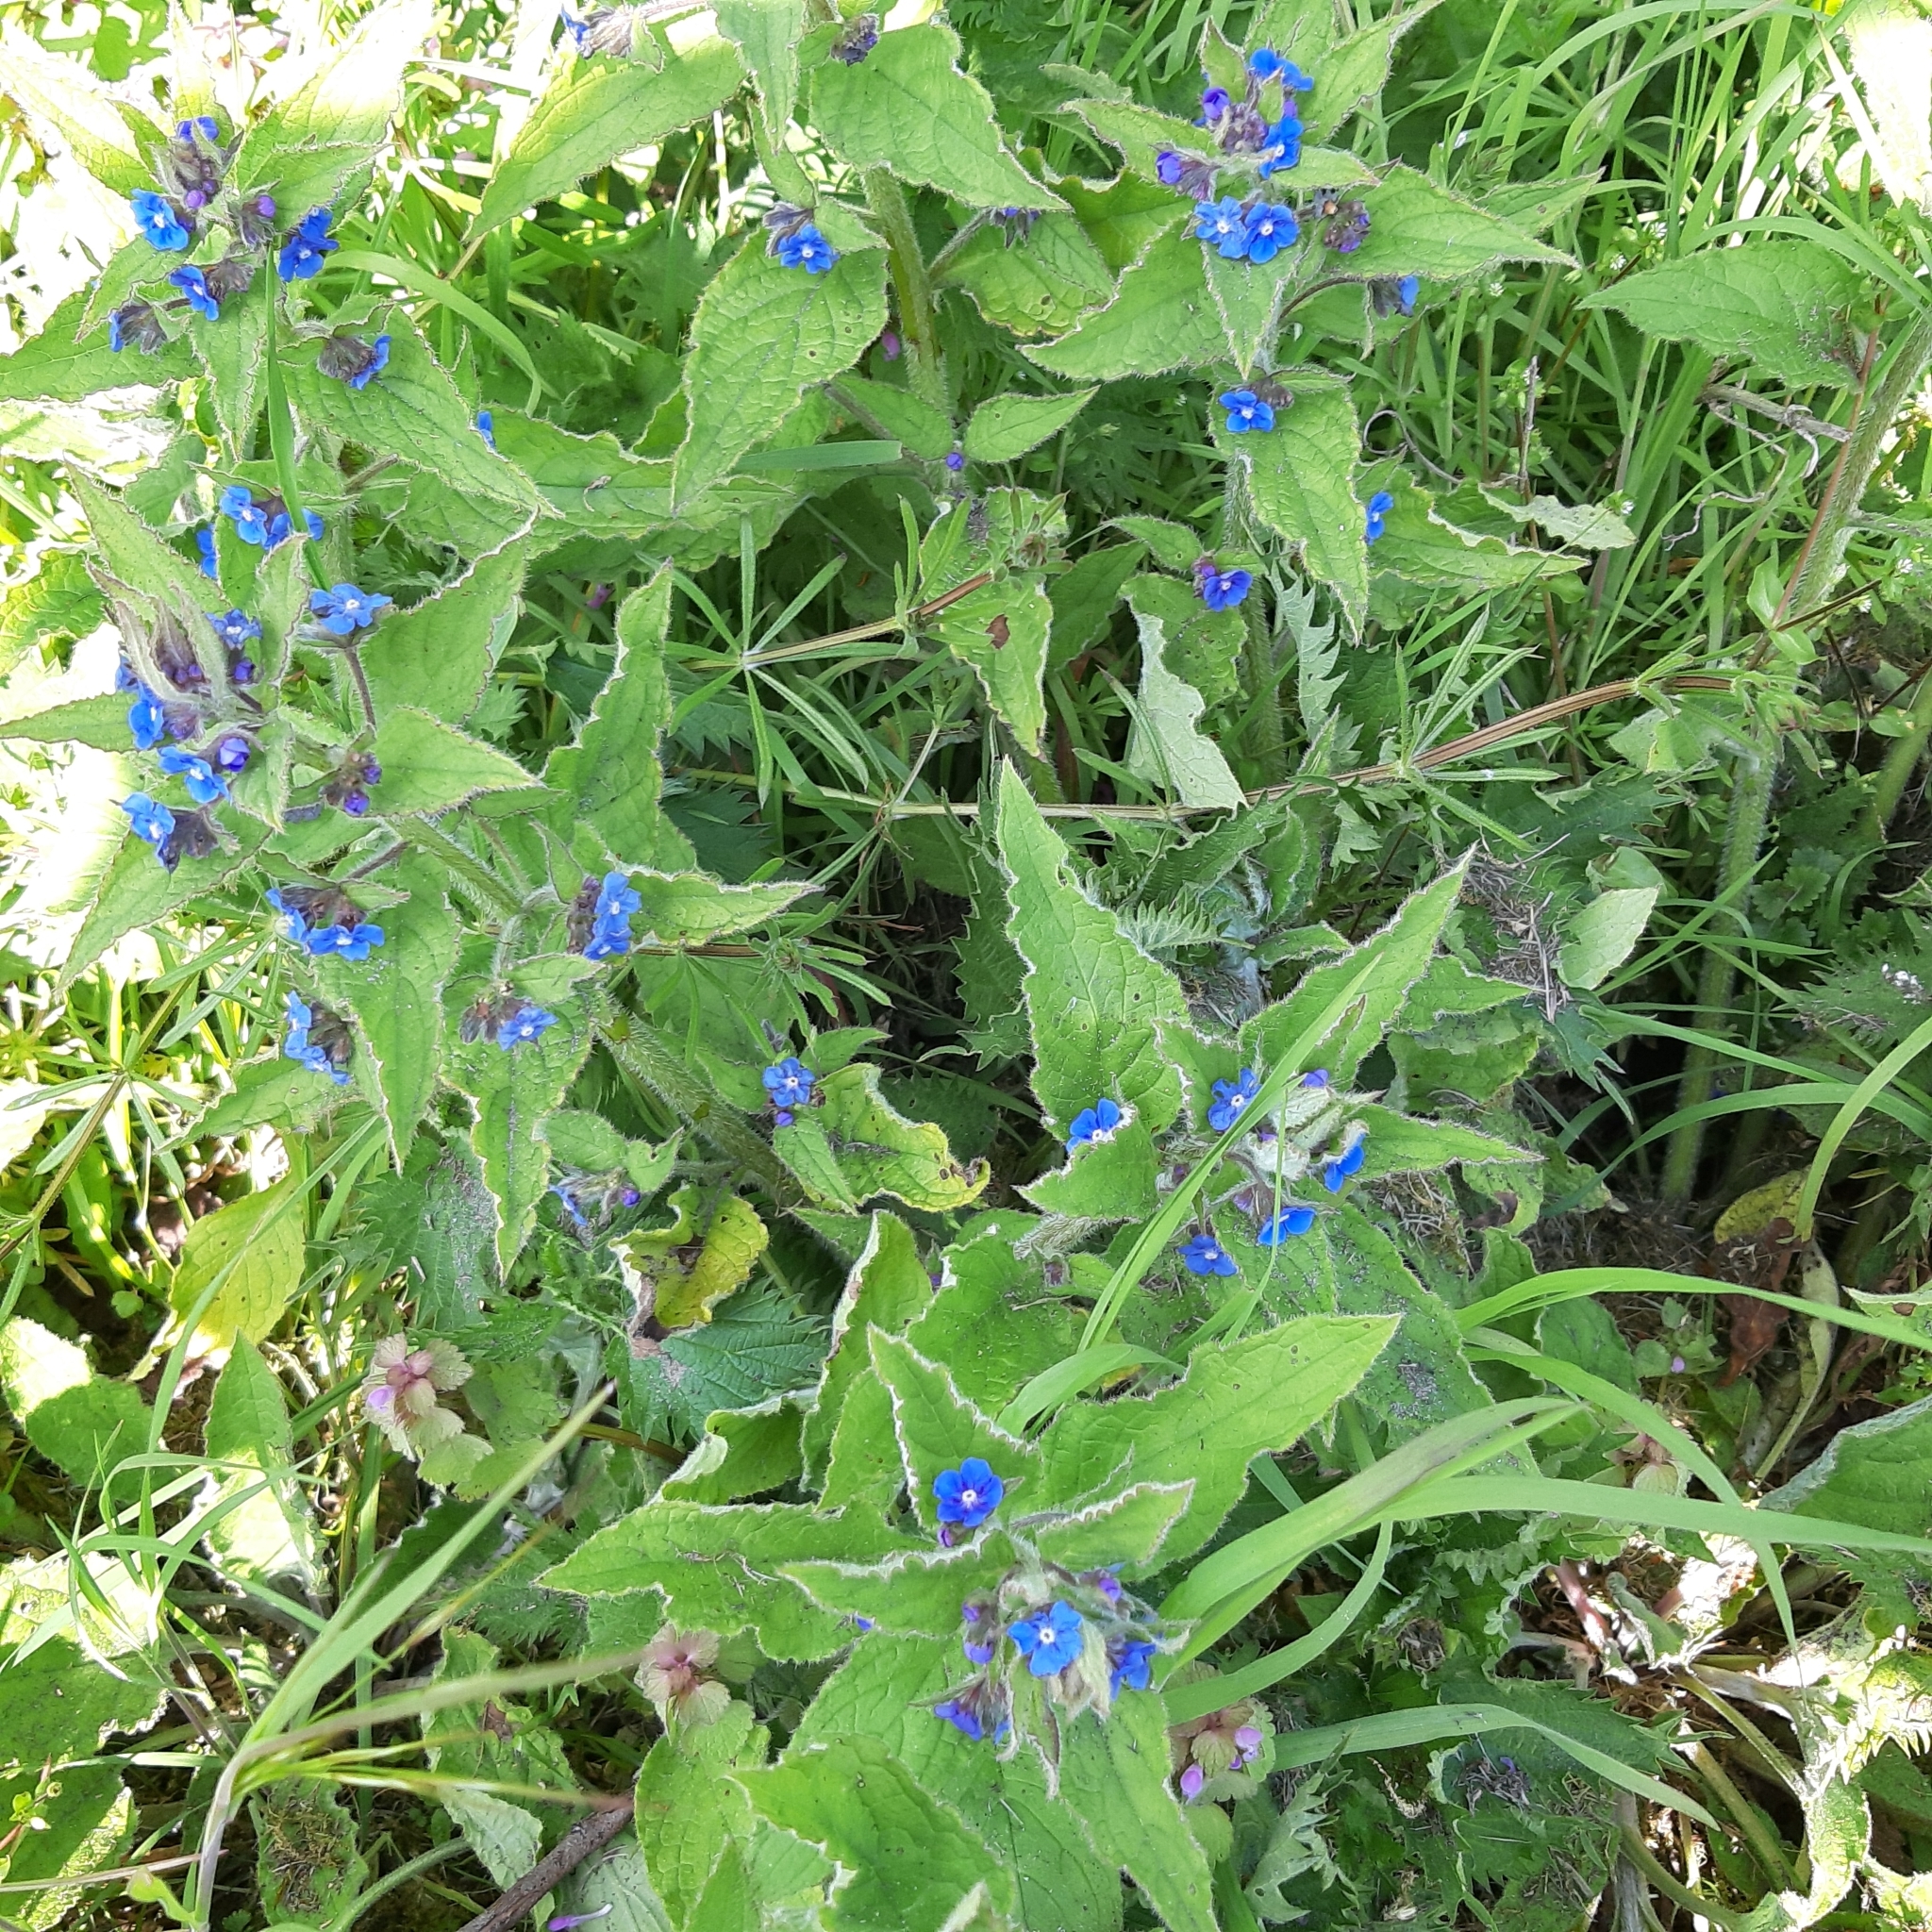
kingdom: Plantae
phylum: Tracheophyta
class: Magnoliopsida
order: Boraginales
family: Boraginaceae
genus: Pentaglottis
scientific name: Pentaglottis sempervirens
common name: Green alkanet
